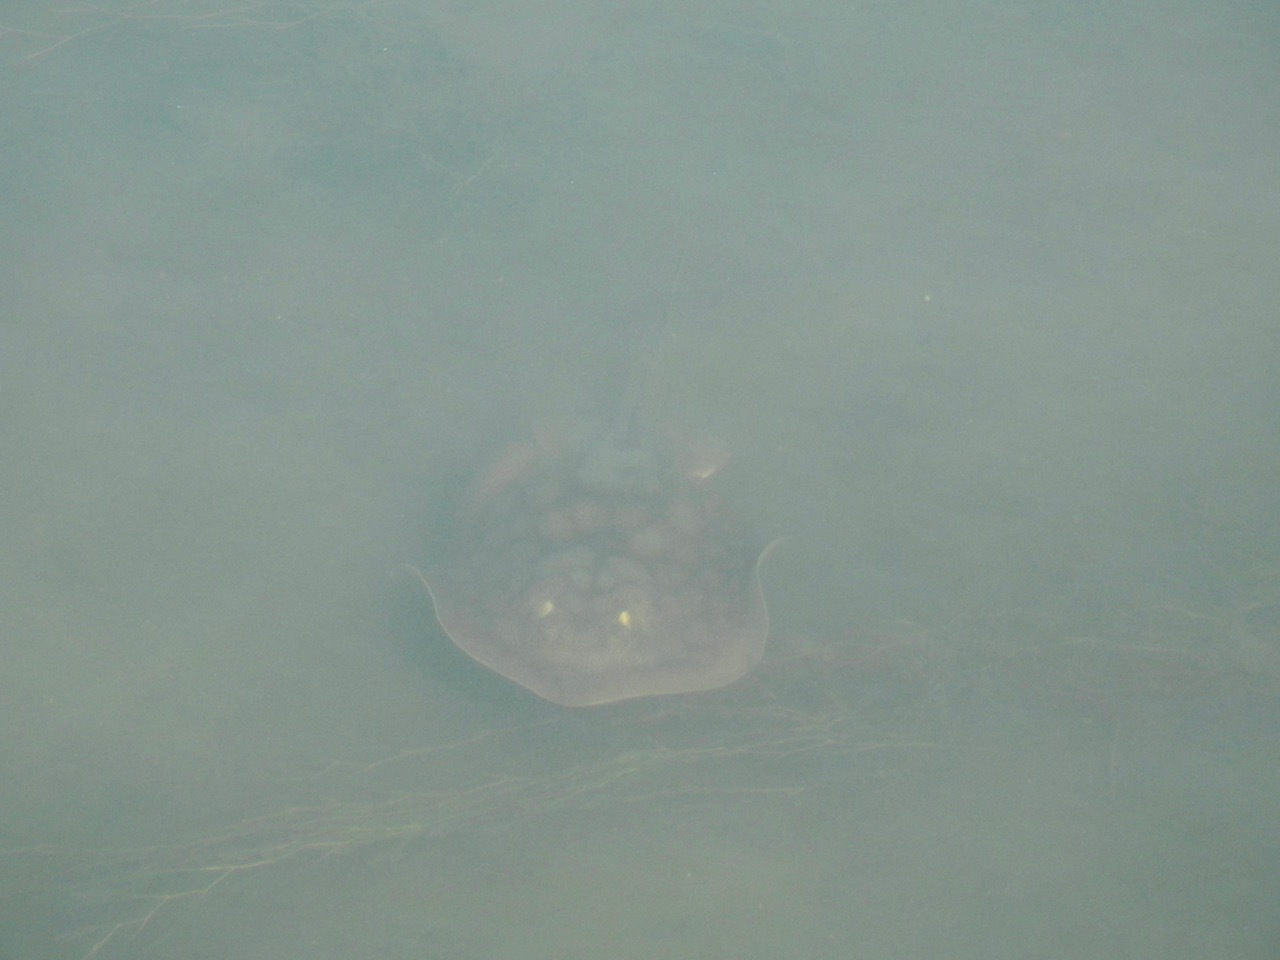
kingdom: Animalia
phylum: Chordata
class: Elasmobranchii
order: Myliobatiformes
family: Urolophidae
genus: Urolophus
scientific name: Urolophus halleri
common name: Round stingray
